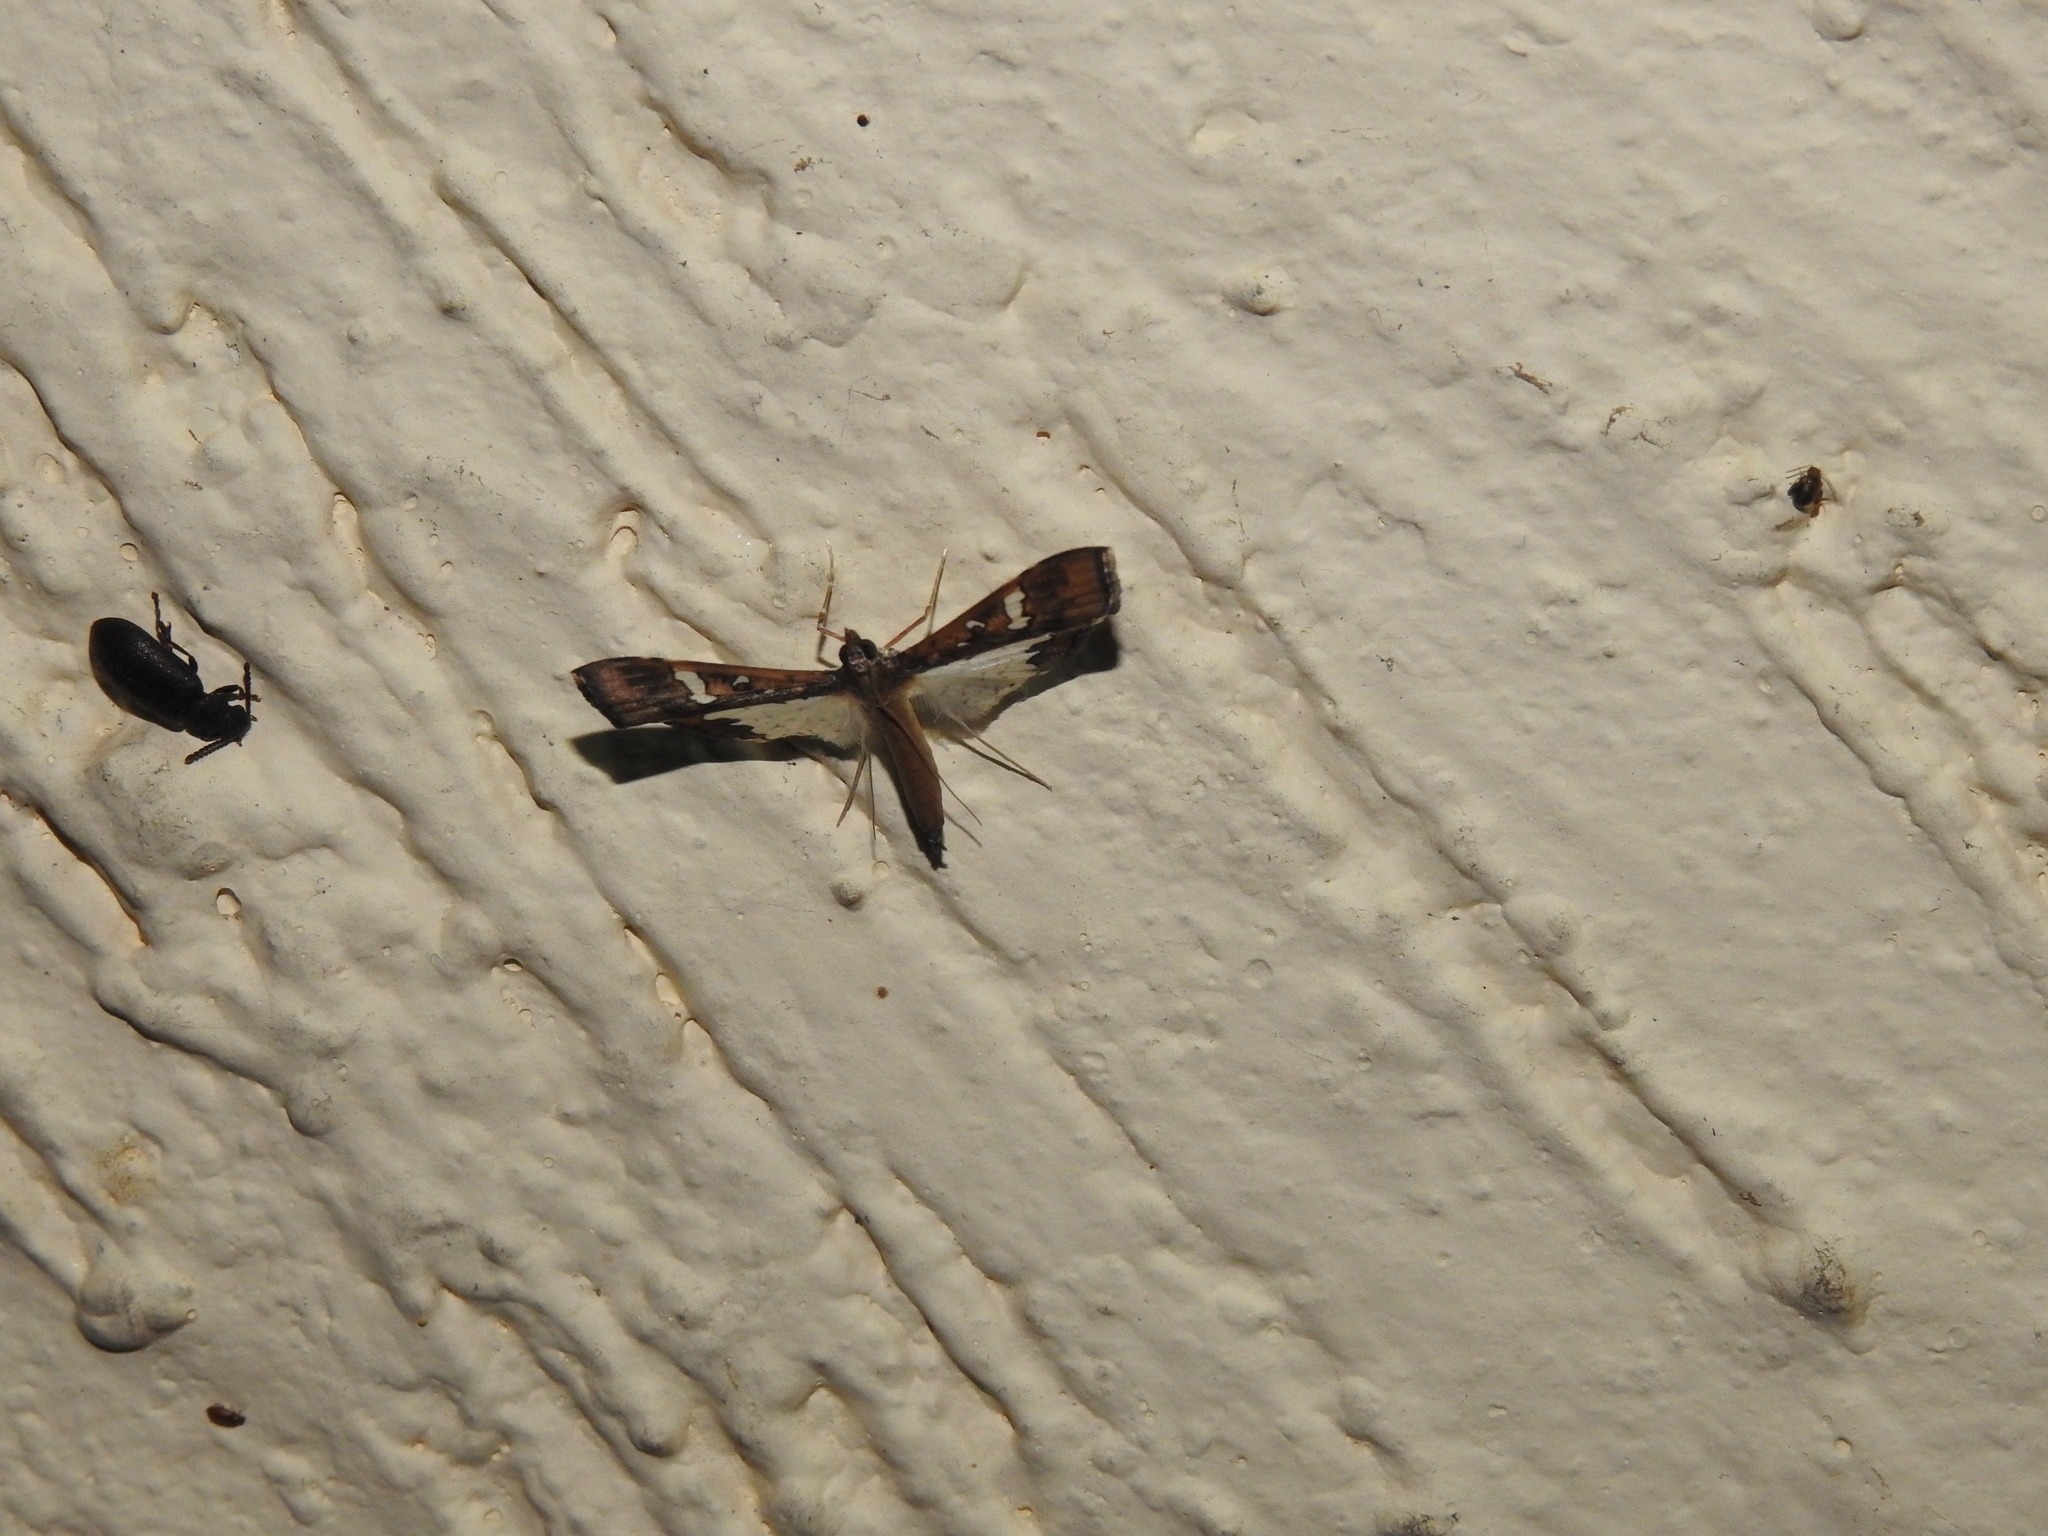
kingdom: Animalia
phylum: Arthropoda
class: Insecta
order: Lepidoptera
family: Crambidae
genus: Maruca
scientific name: Maruca vitrata
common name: Maruca pod borer
